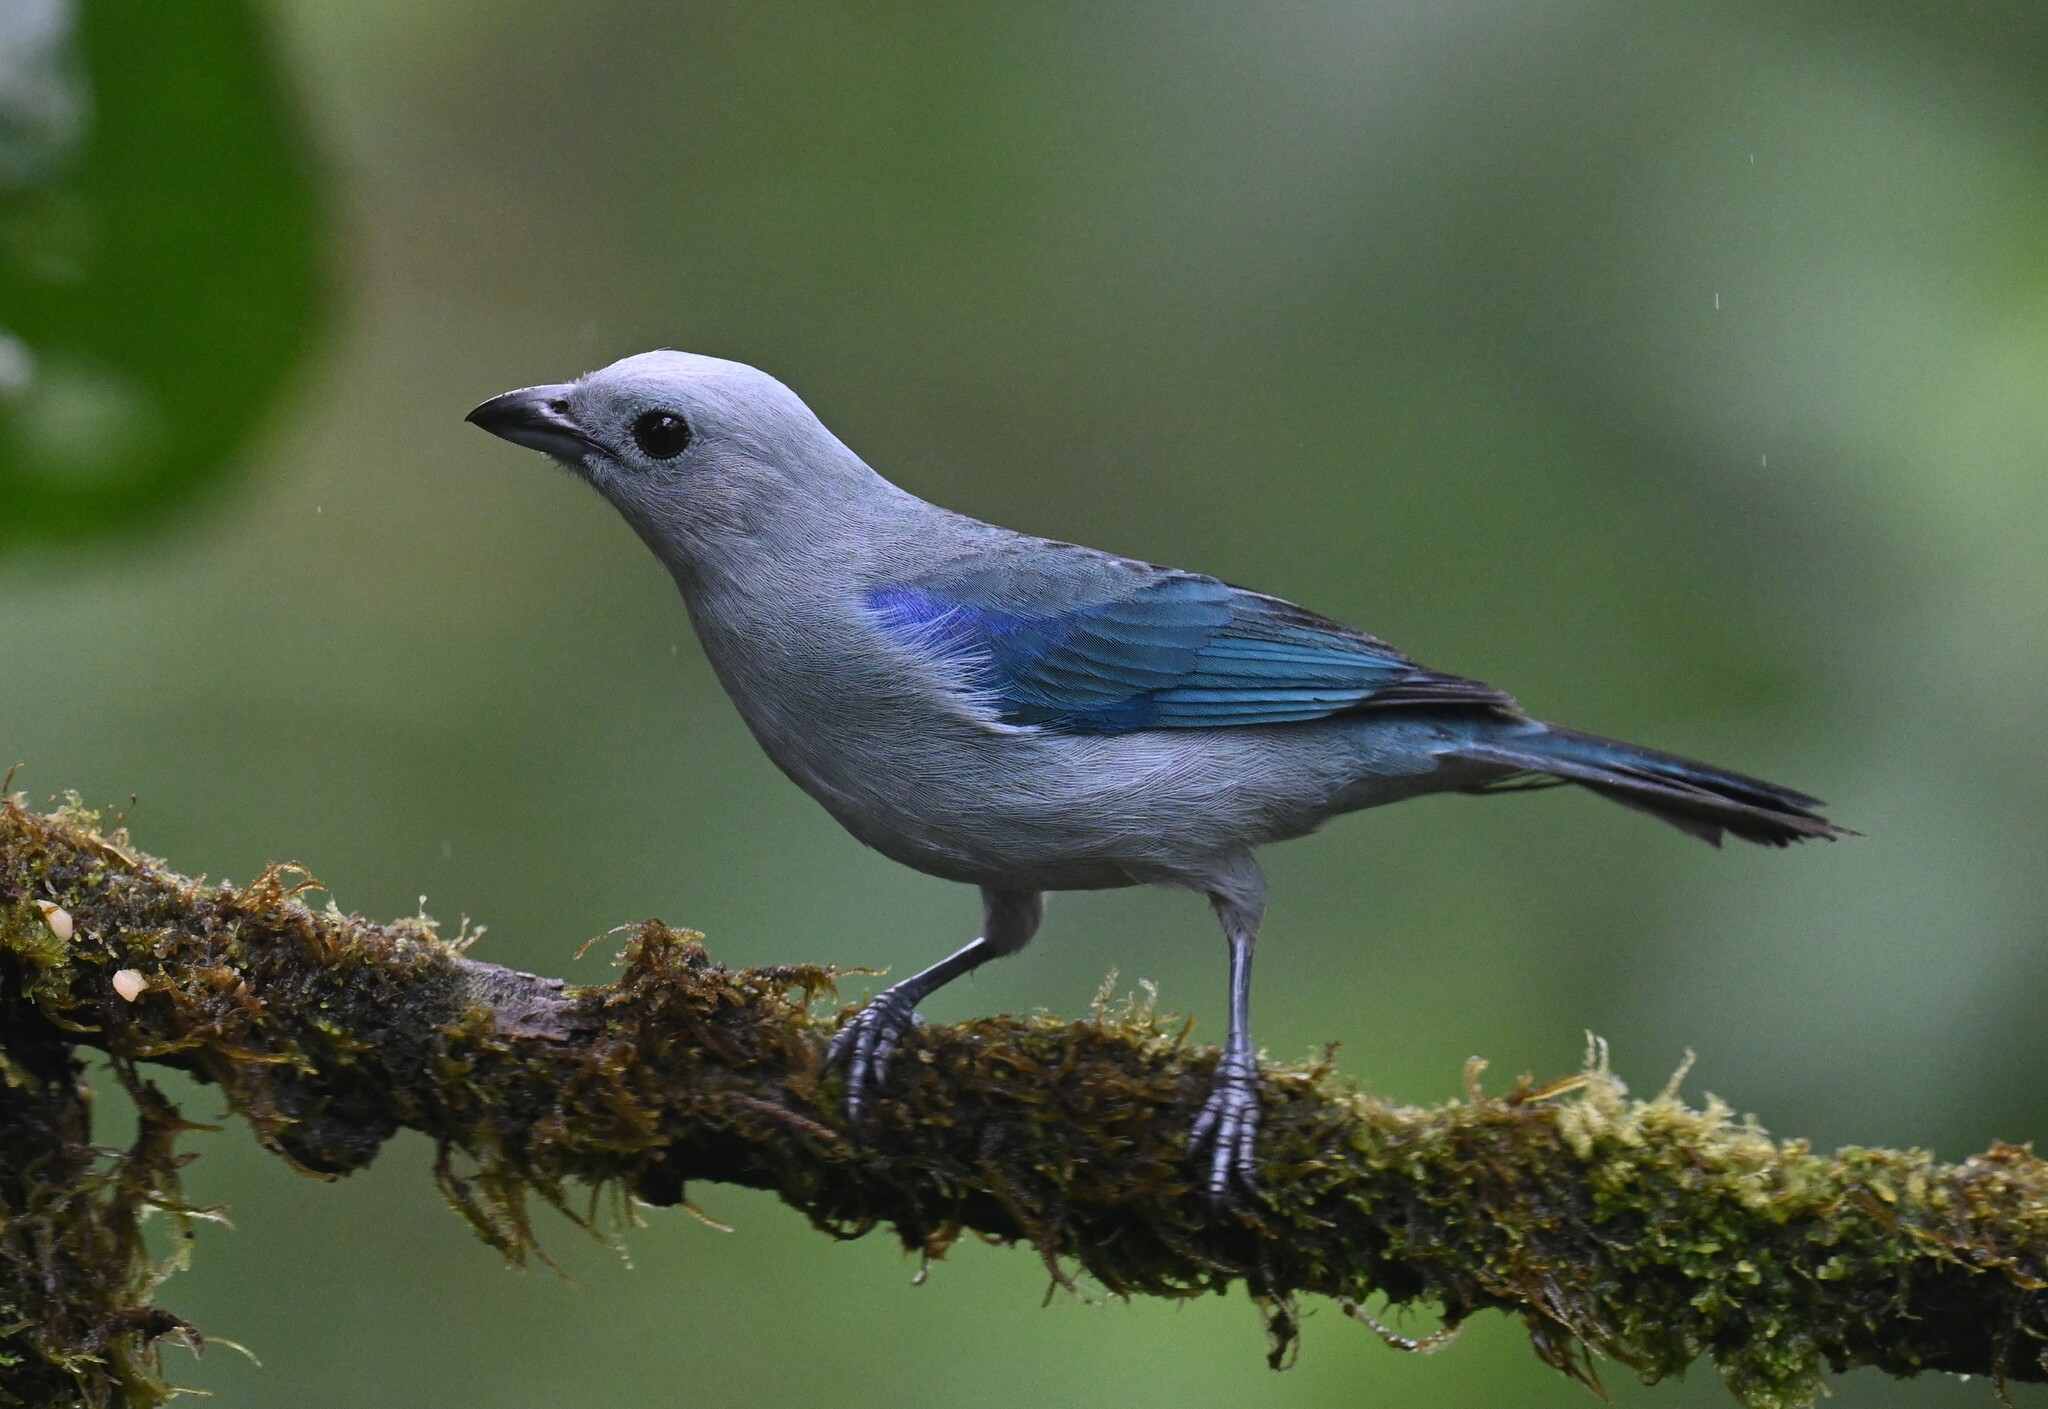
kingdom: Animalia
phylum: Chordata
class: Aves
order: Passeriformes
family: Thraupidae
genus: Thraupis
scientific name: Thraupis episcopus
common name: Blue-grey tanager
